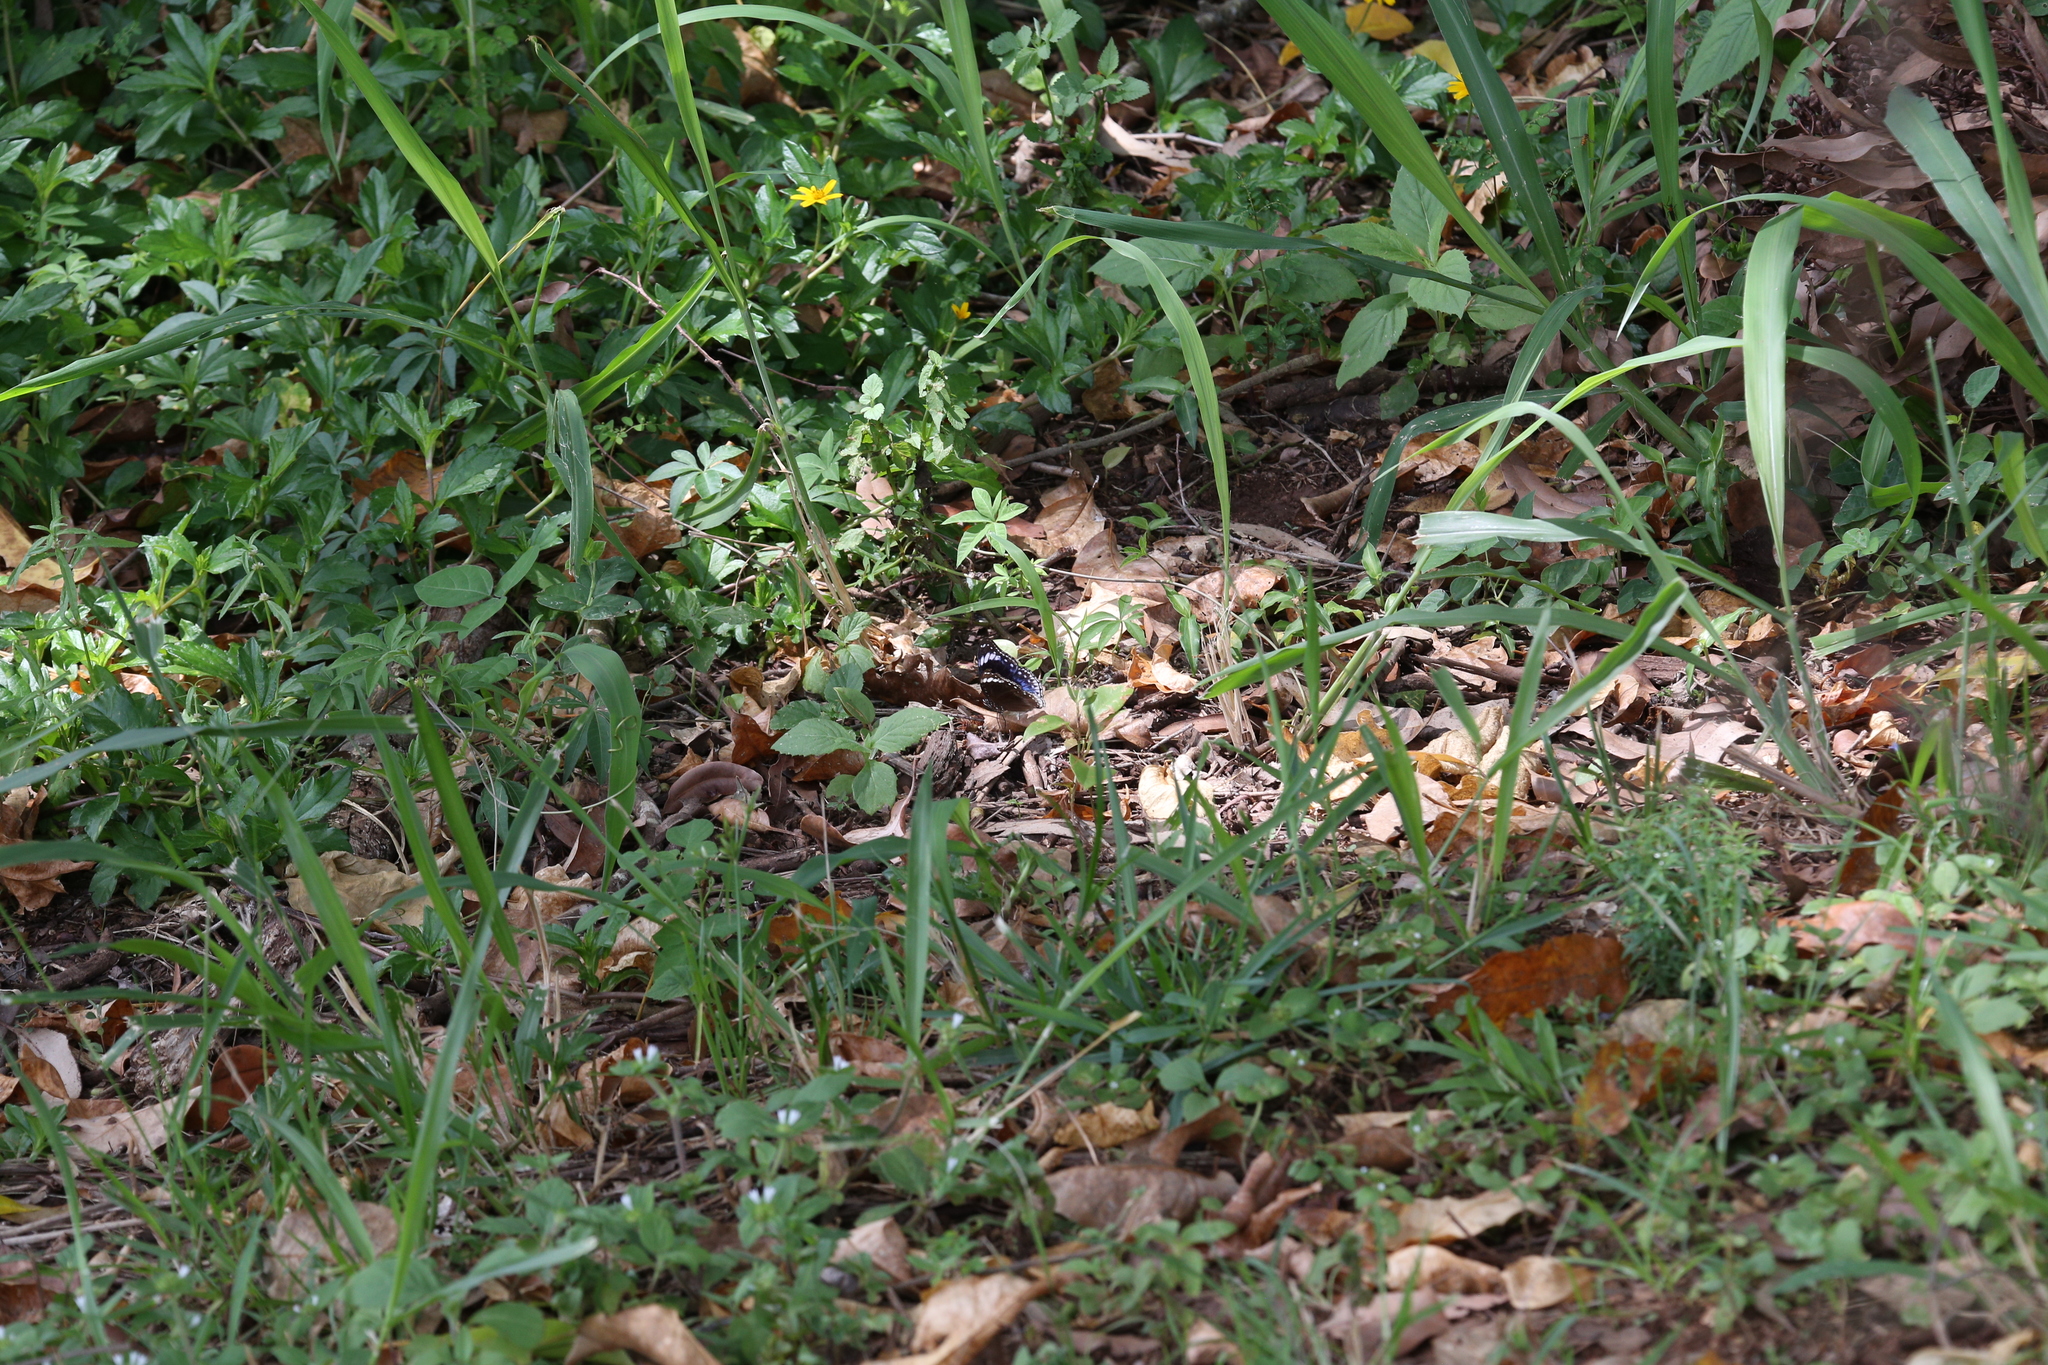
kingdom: Animalia
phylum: Arthropoda
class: Insecta
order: Lepidoptera
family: Nymphalidae
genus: Hypolimnas
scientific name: Hypolimnas alimena
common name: Blue-banded eggfly
